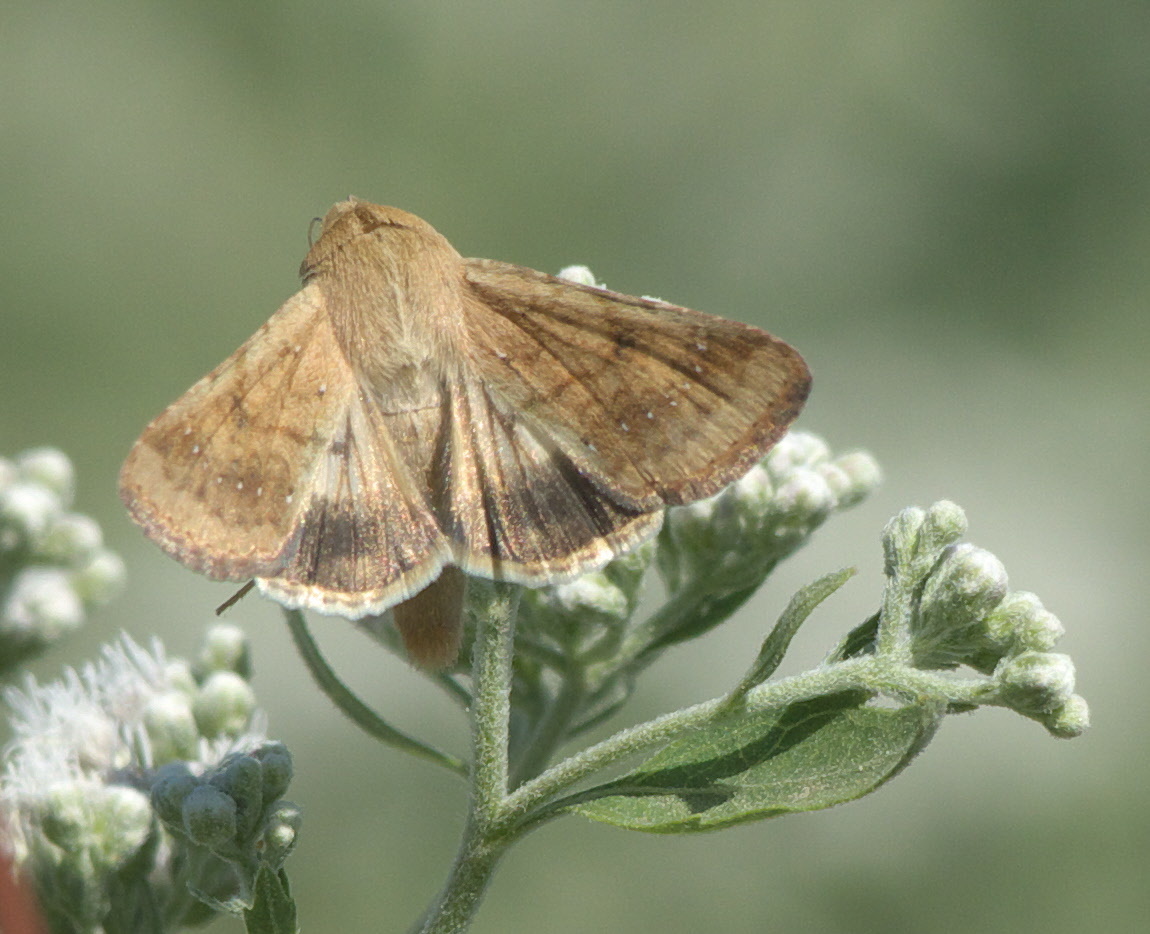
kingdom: Animalia
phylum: Arthropoda
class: Insecta
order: Lepidoptera
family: Noctuidae
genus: Helicoverpa
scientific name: Helicoverpa zea
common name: Bollworm
